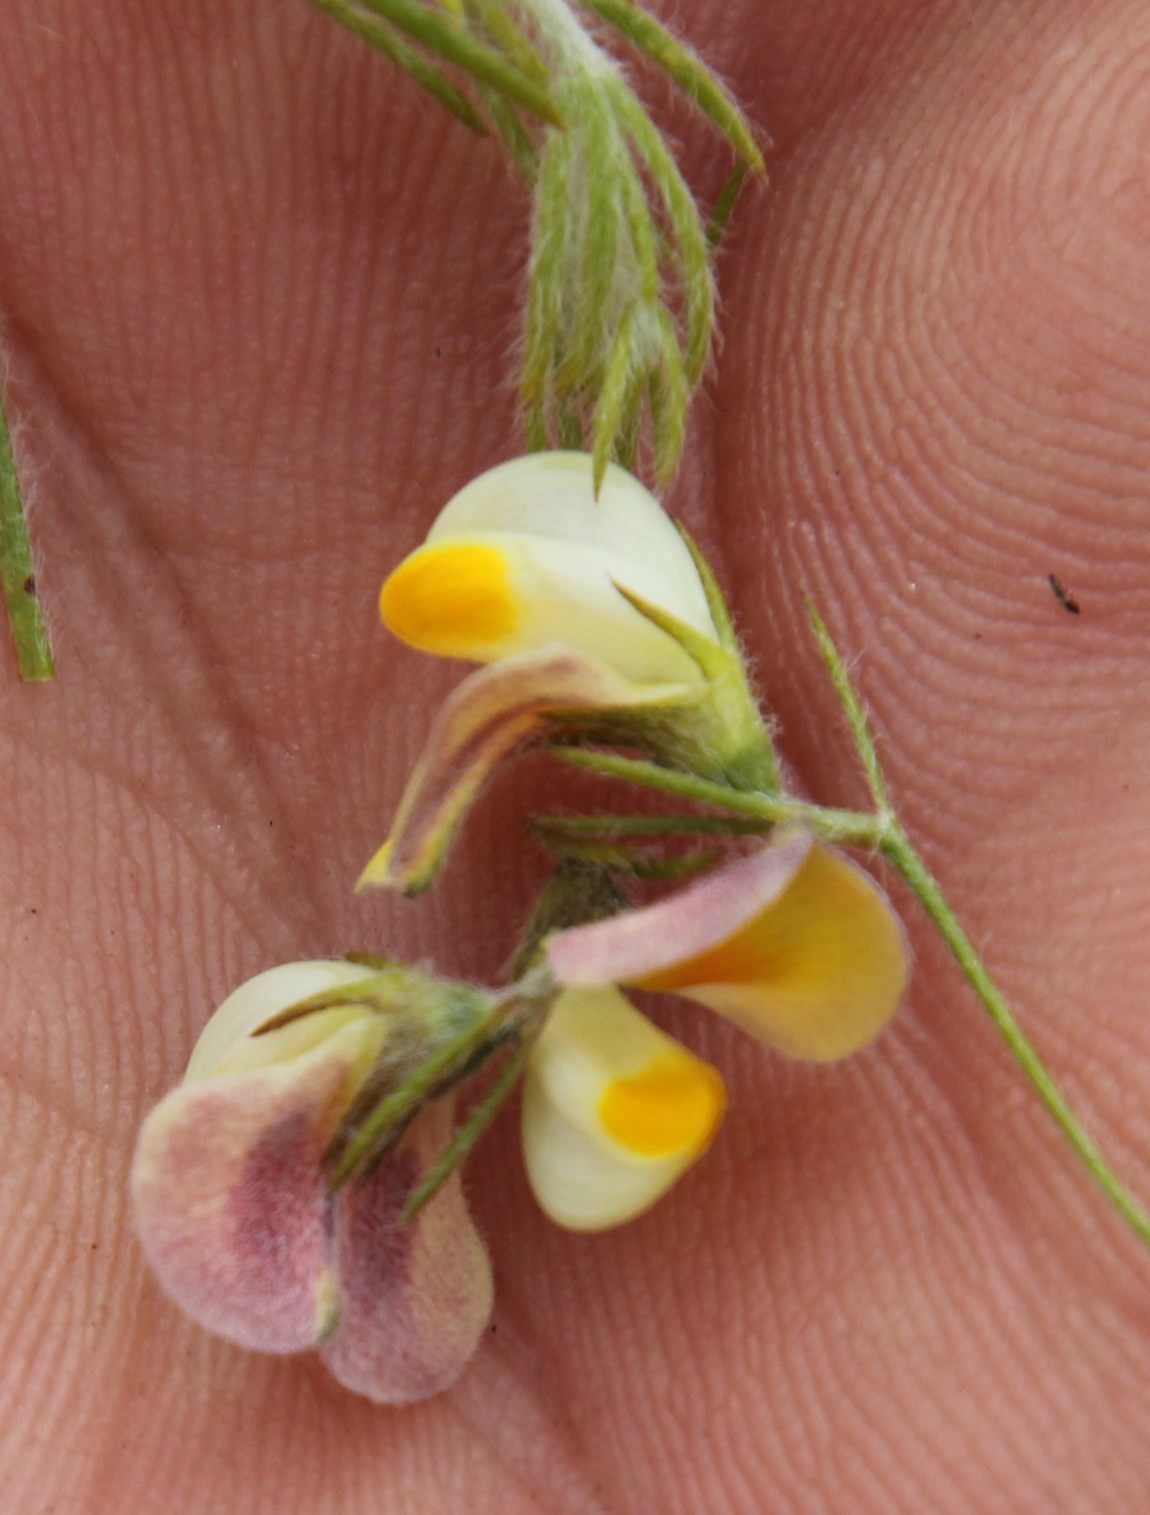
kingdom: Plantae
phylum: Tracheophyta
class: Magnoliopsida
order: Fabales
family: Fabaceae
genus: Aspalathus
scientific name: Aspalathus bracteata
